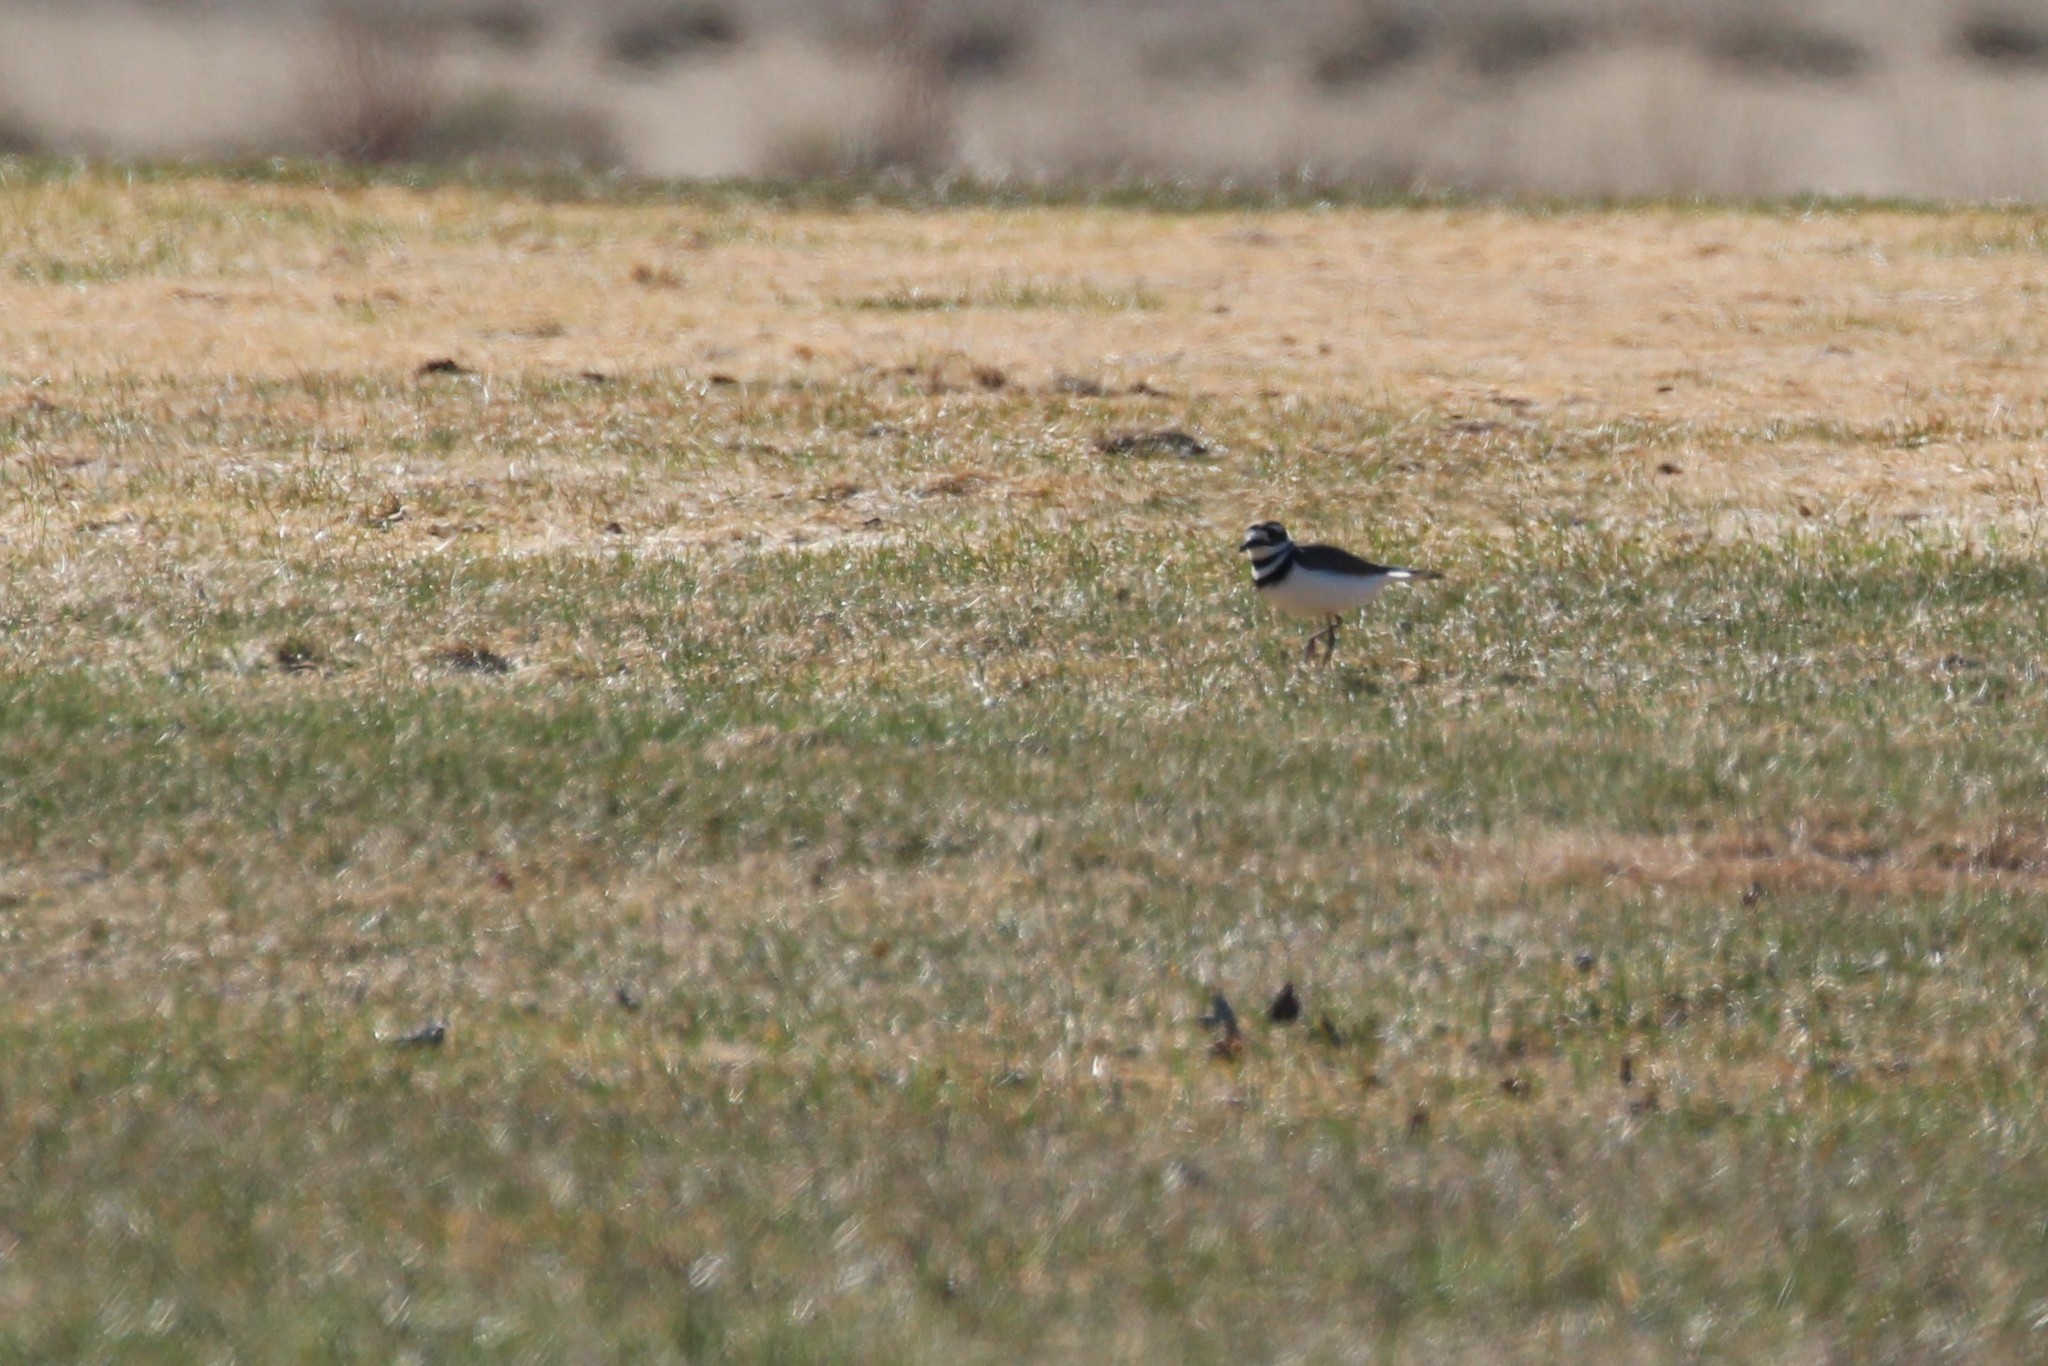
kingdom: Animalia
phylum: Chordata
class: Aves
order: Charadriiformes
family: Charadriidae
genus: Charadrius
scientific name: Charadrius vociferus
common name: Killdeer
